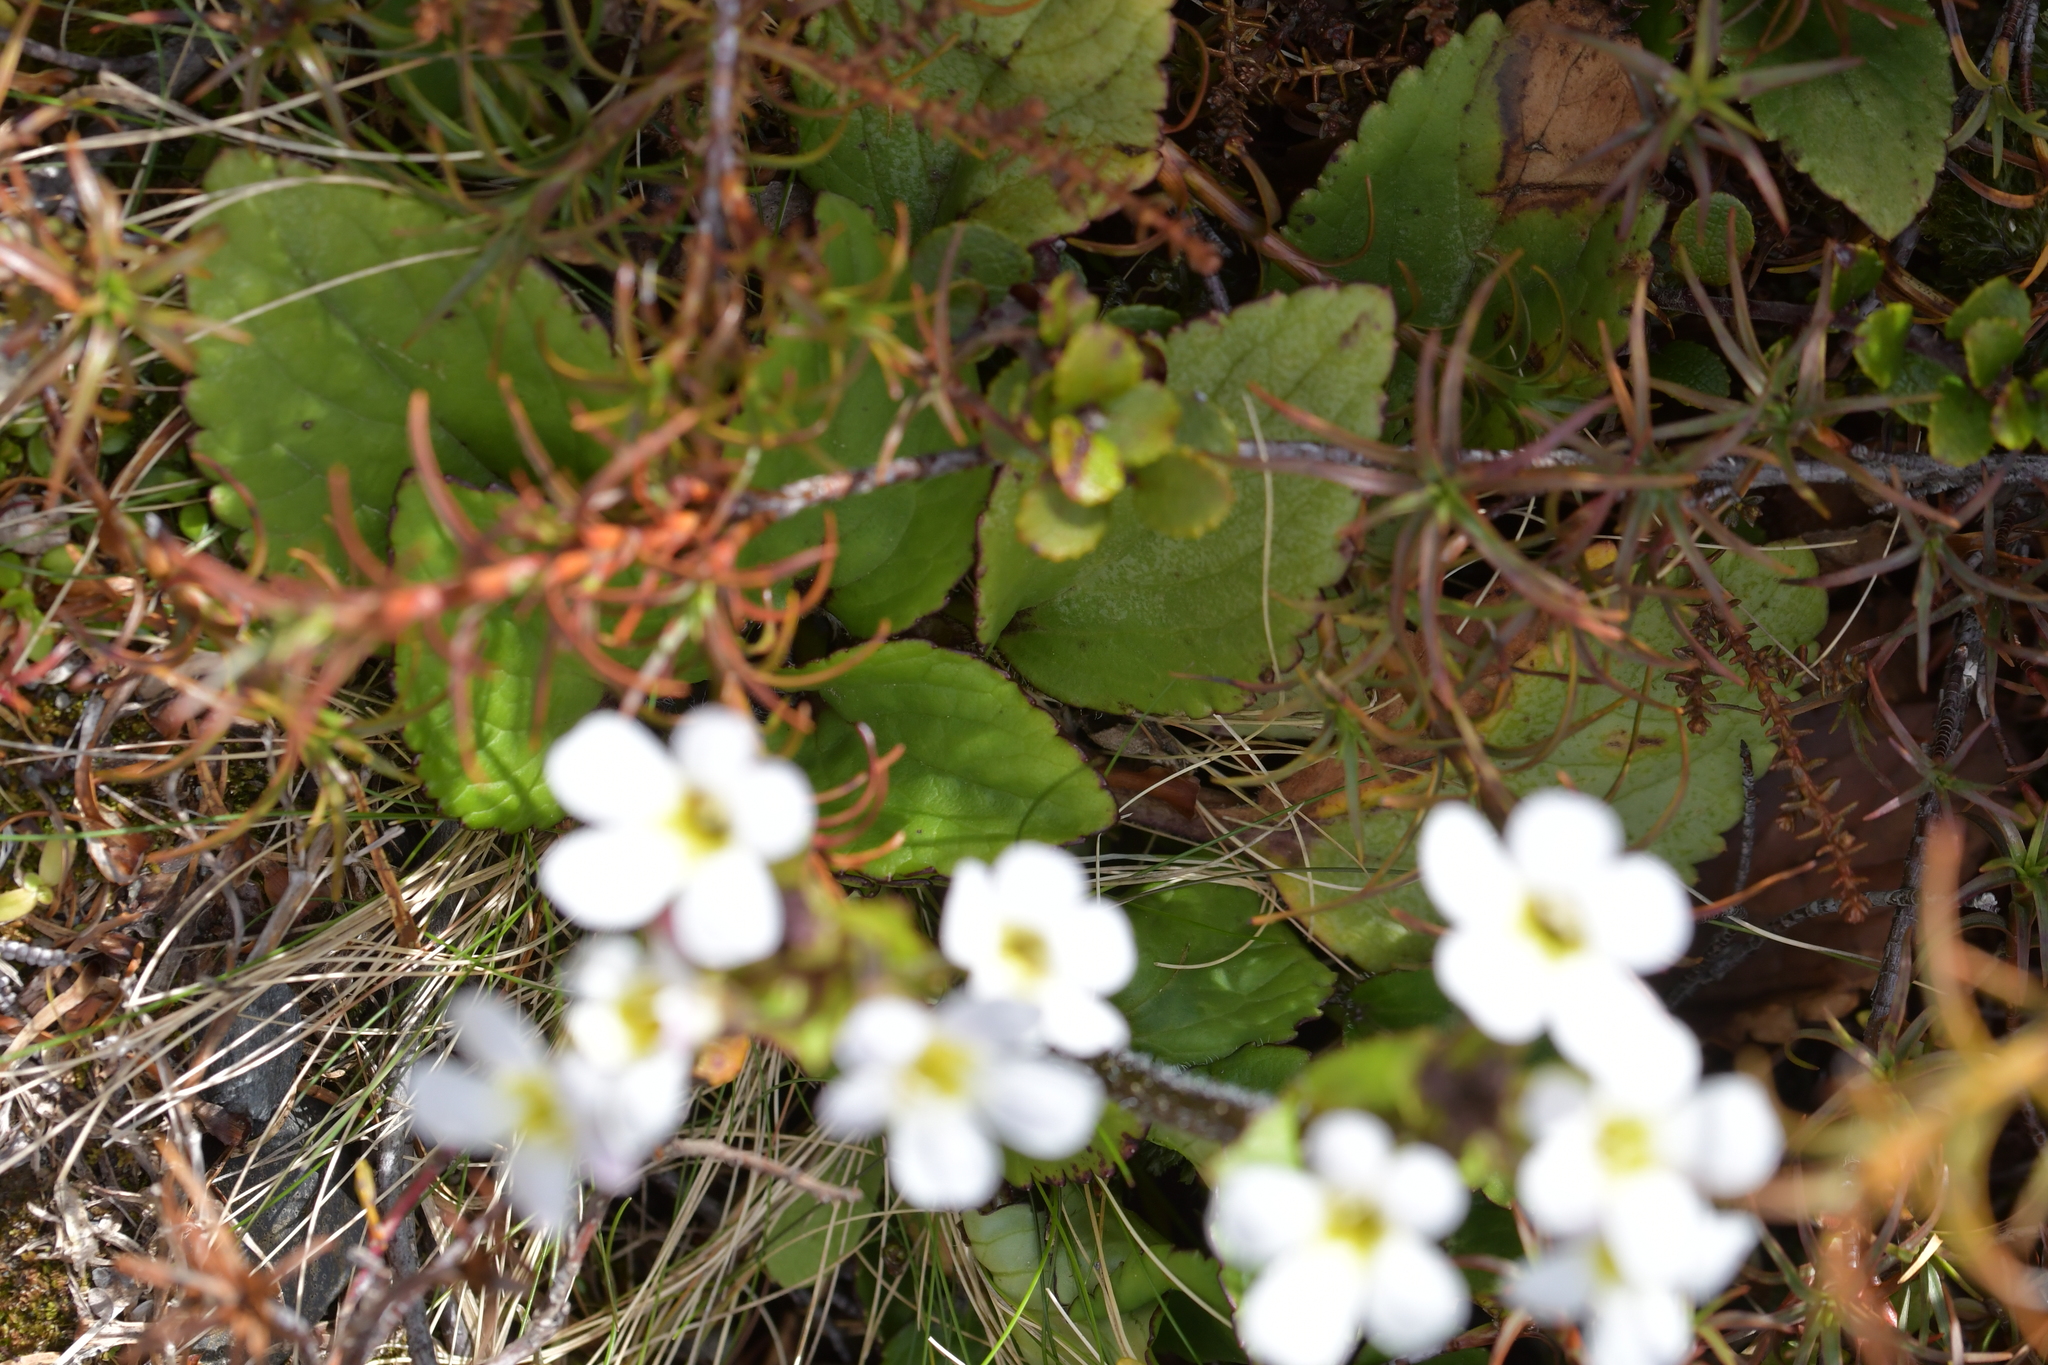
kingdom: Plantae
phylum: Tracheophyta
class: Magnoliopsida
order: Lamiales
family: Plantaginaceae
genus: Ourisia
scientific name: Ourisia macrophylla
